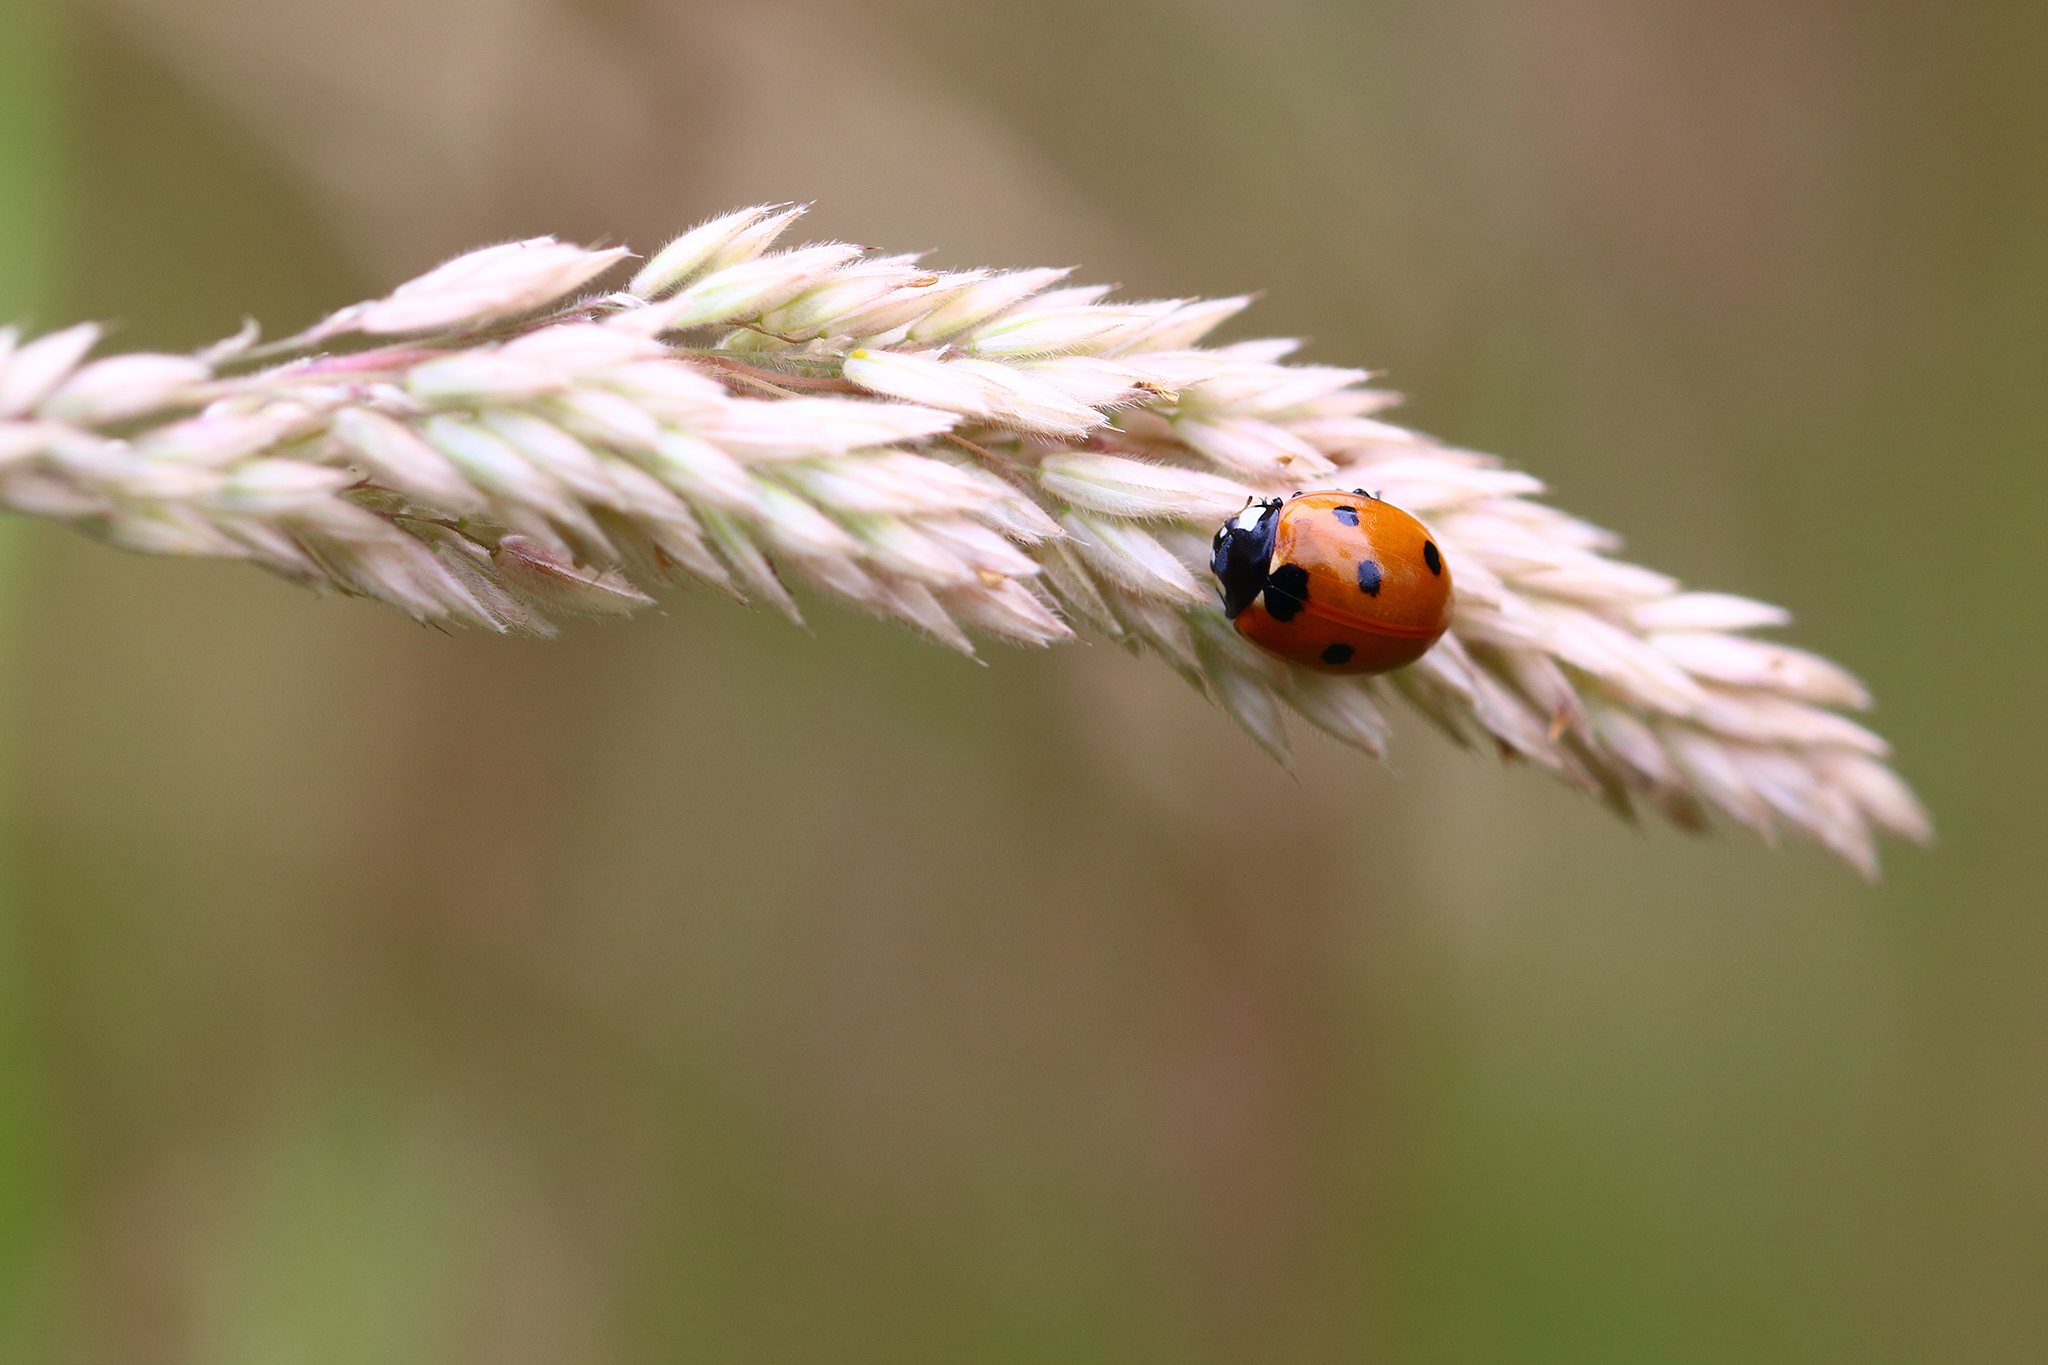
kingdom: Animalia
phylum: Arthropoda
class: Insecta
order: Coleoptera
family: Coccinellidae
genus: Coccinella
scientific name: Coccinella septempunctata
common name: Sevenspotted lady beetle
